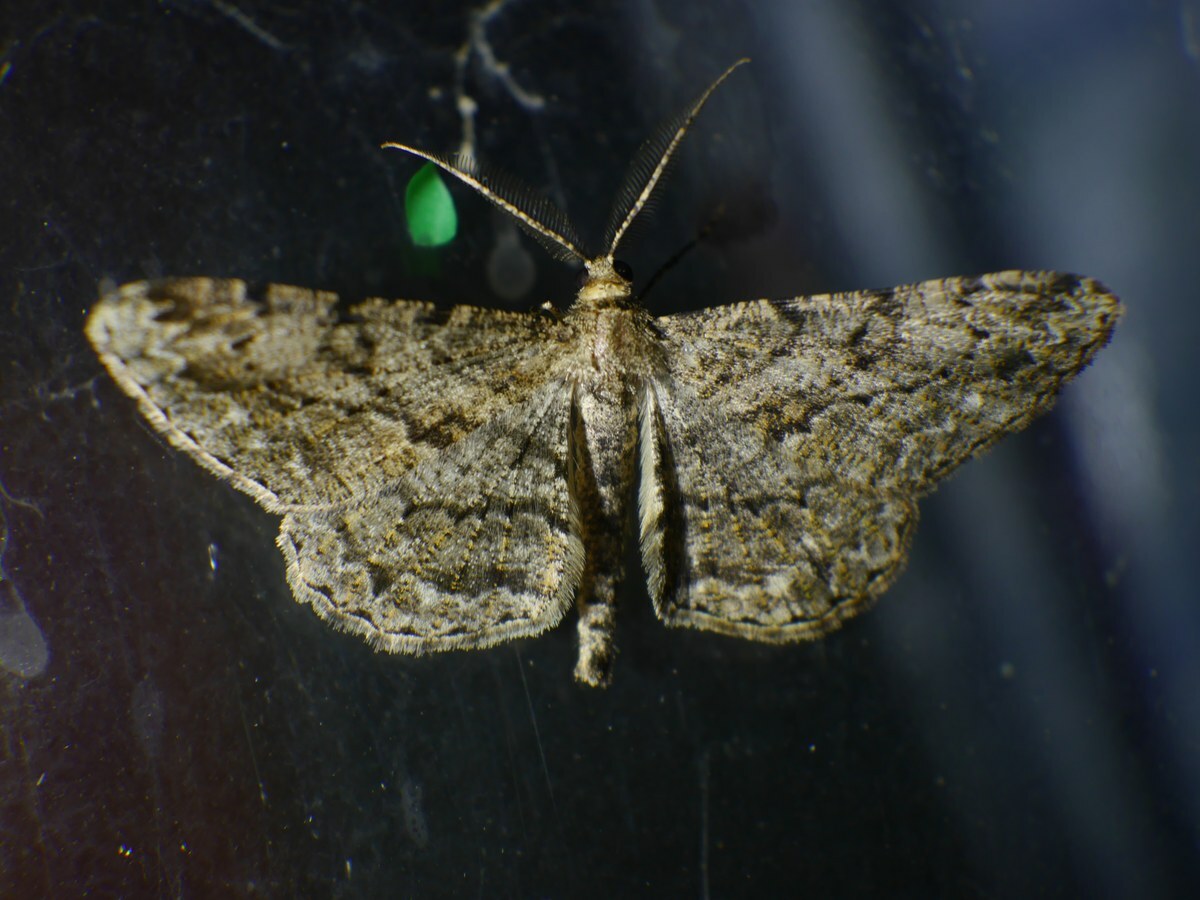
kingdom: Animalia
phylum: Arthropoda
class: Insecta
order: Lepidoptera
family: Geometridae
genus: Peribatodes
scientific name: Peribatodes rhomboidaria
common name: Willow beauty
